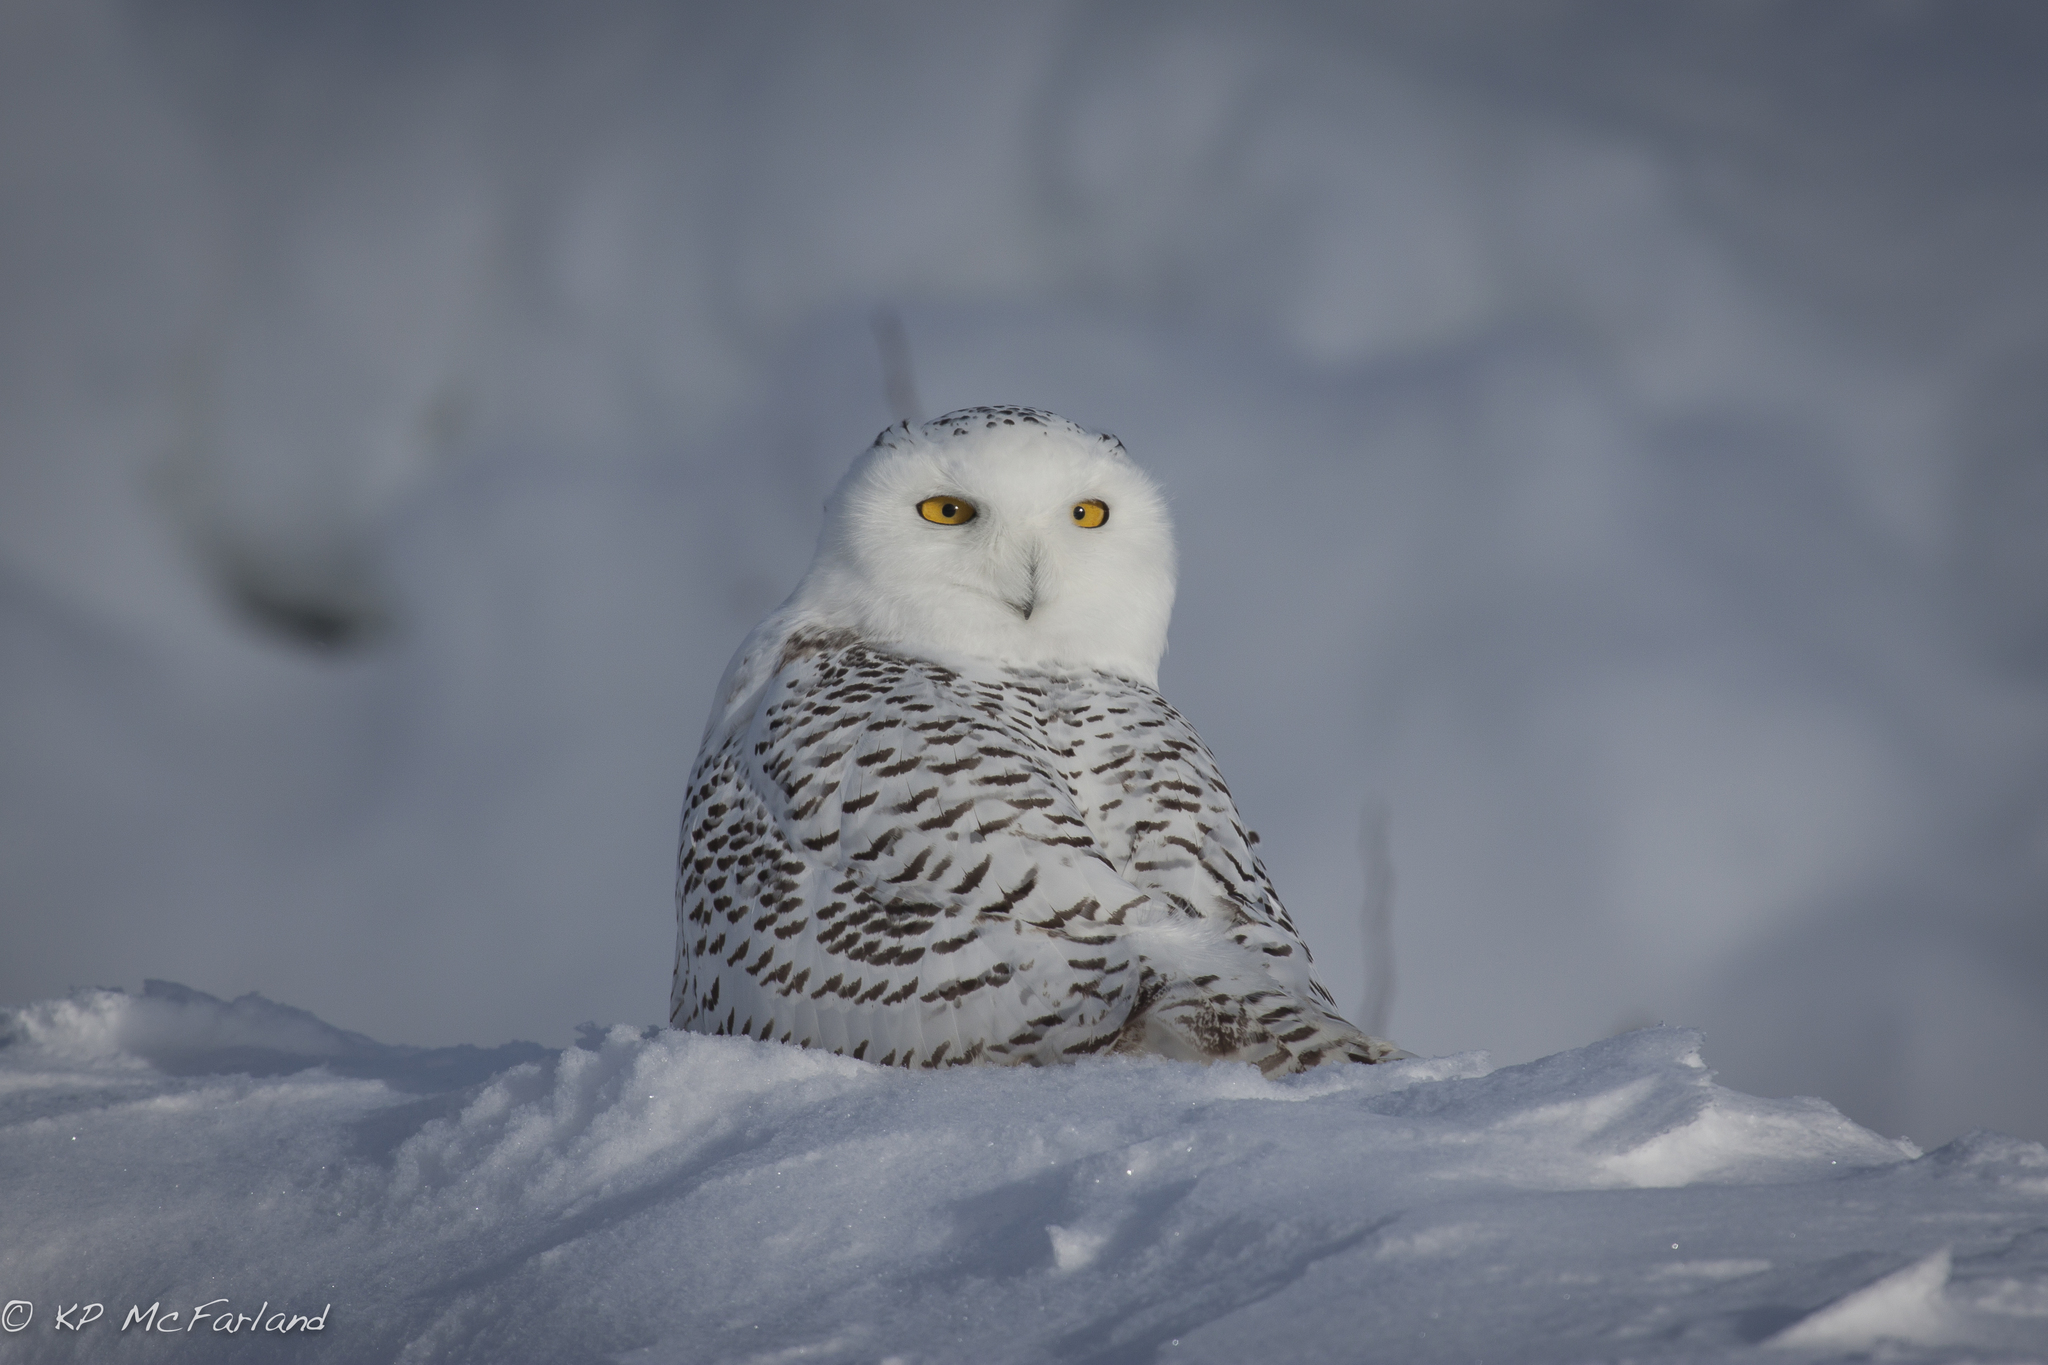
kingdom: Animalia
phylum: Chordata
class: Aves
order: Strigiformes
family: Strigidae
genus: Bubo
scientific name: Bubo scandiacus
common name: Snowy owl
